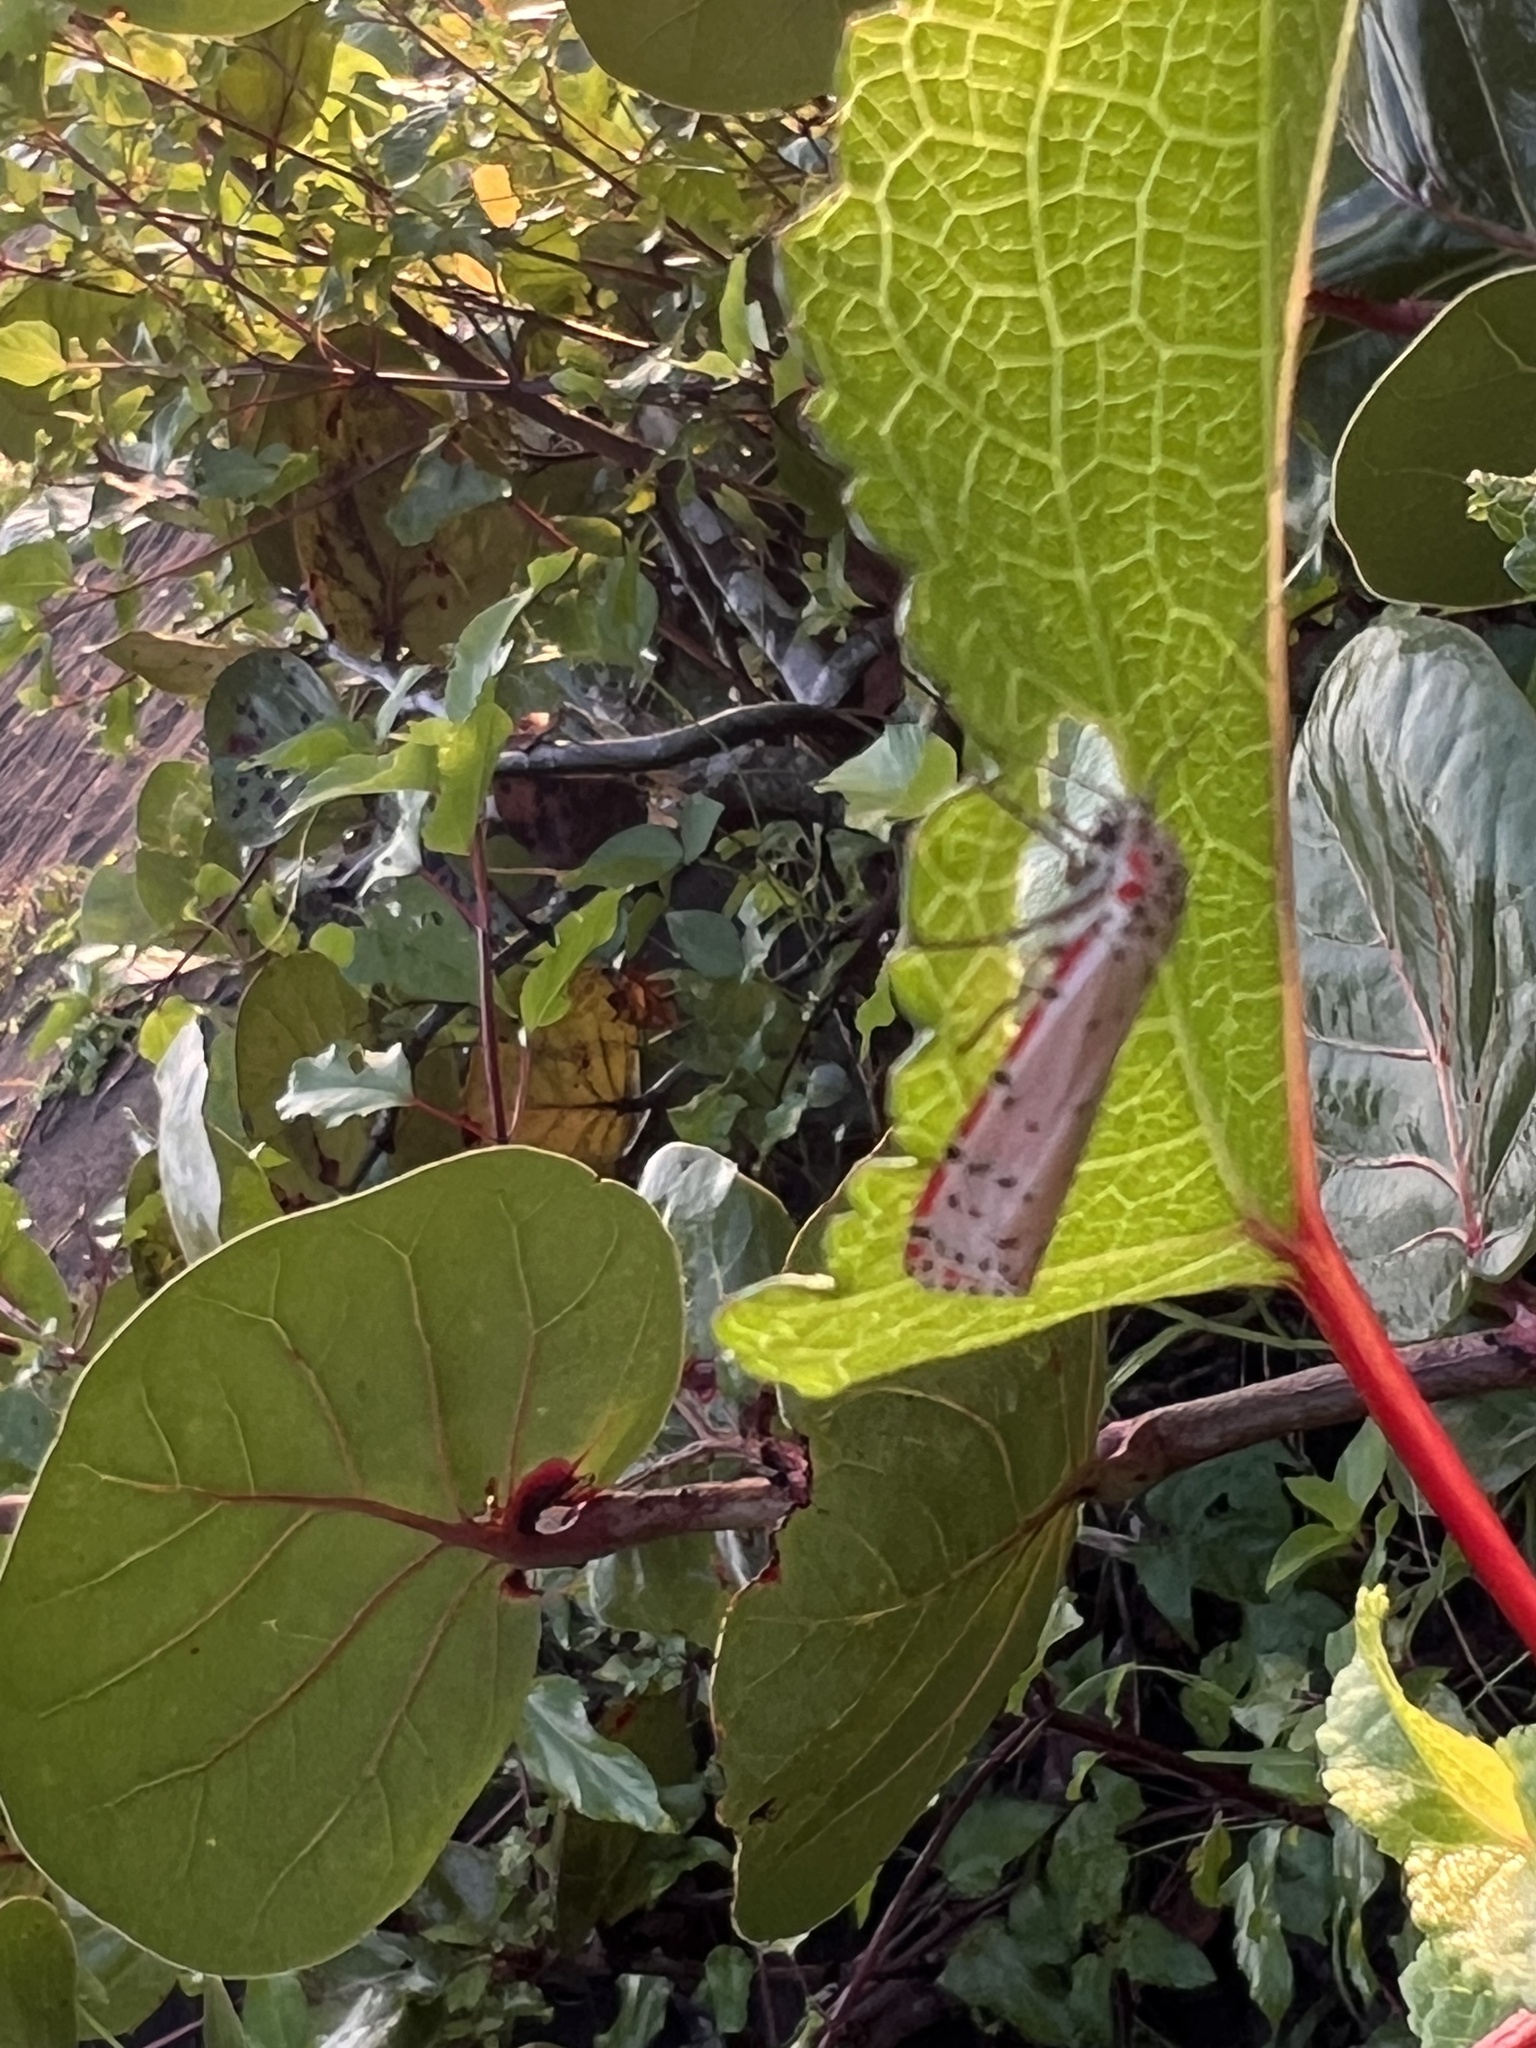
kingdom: Animalia
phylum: Arthropoda
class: Insecta
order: Lepidoptera
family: Erebidae
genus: Utetheisa
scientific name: Utetheisa ornatrix
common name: Beautiful utetheisa
